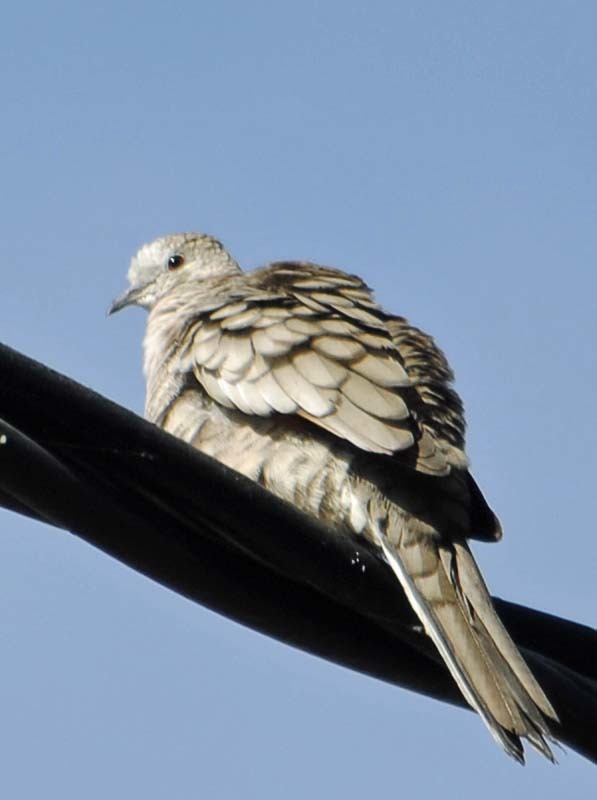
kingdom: Animalia
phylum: Chordata
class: Aves
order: Columbiformes
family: Columbidae
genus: Columbina
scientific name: Columbina inca
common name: Inca dove
